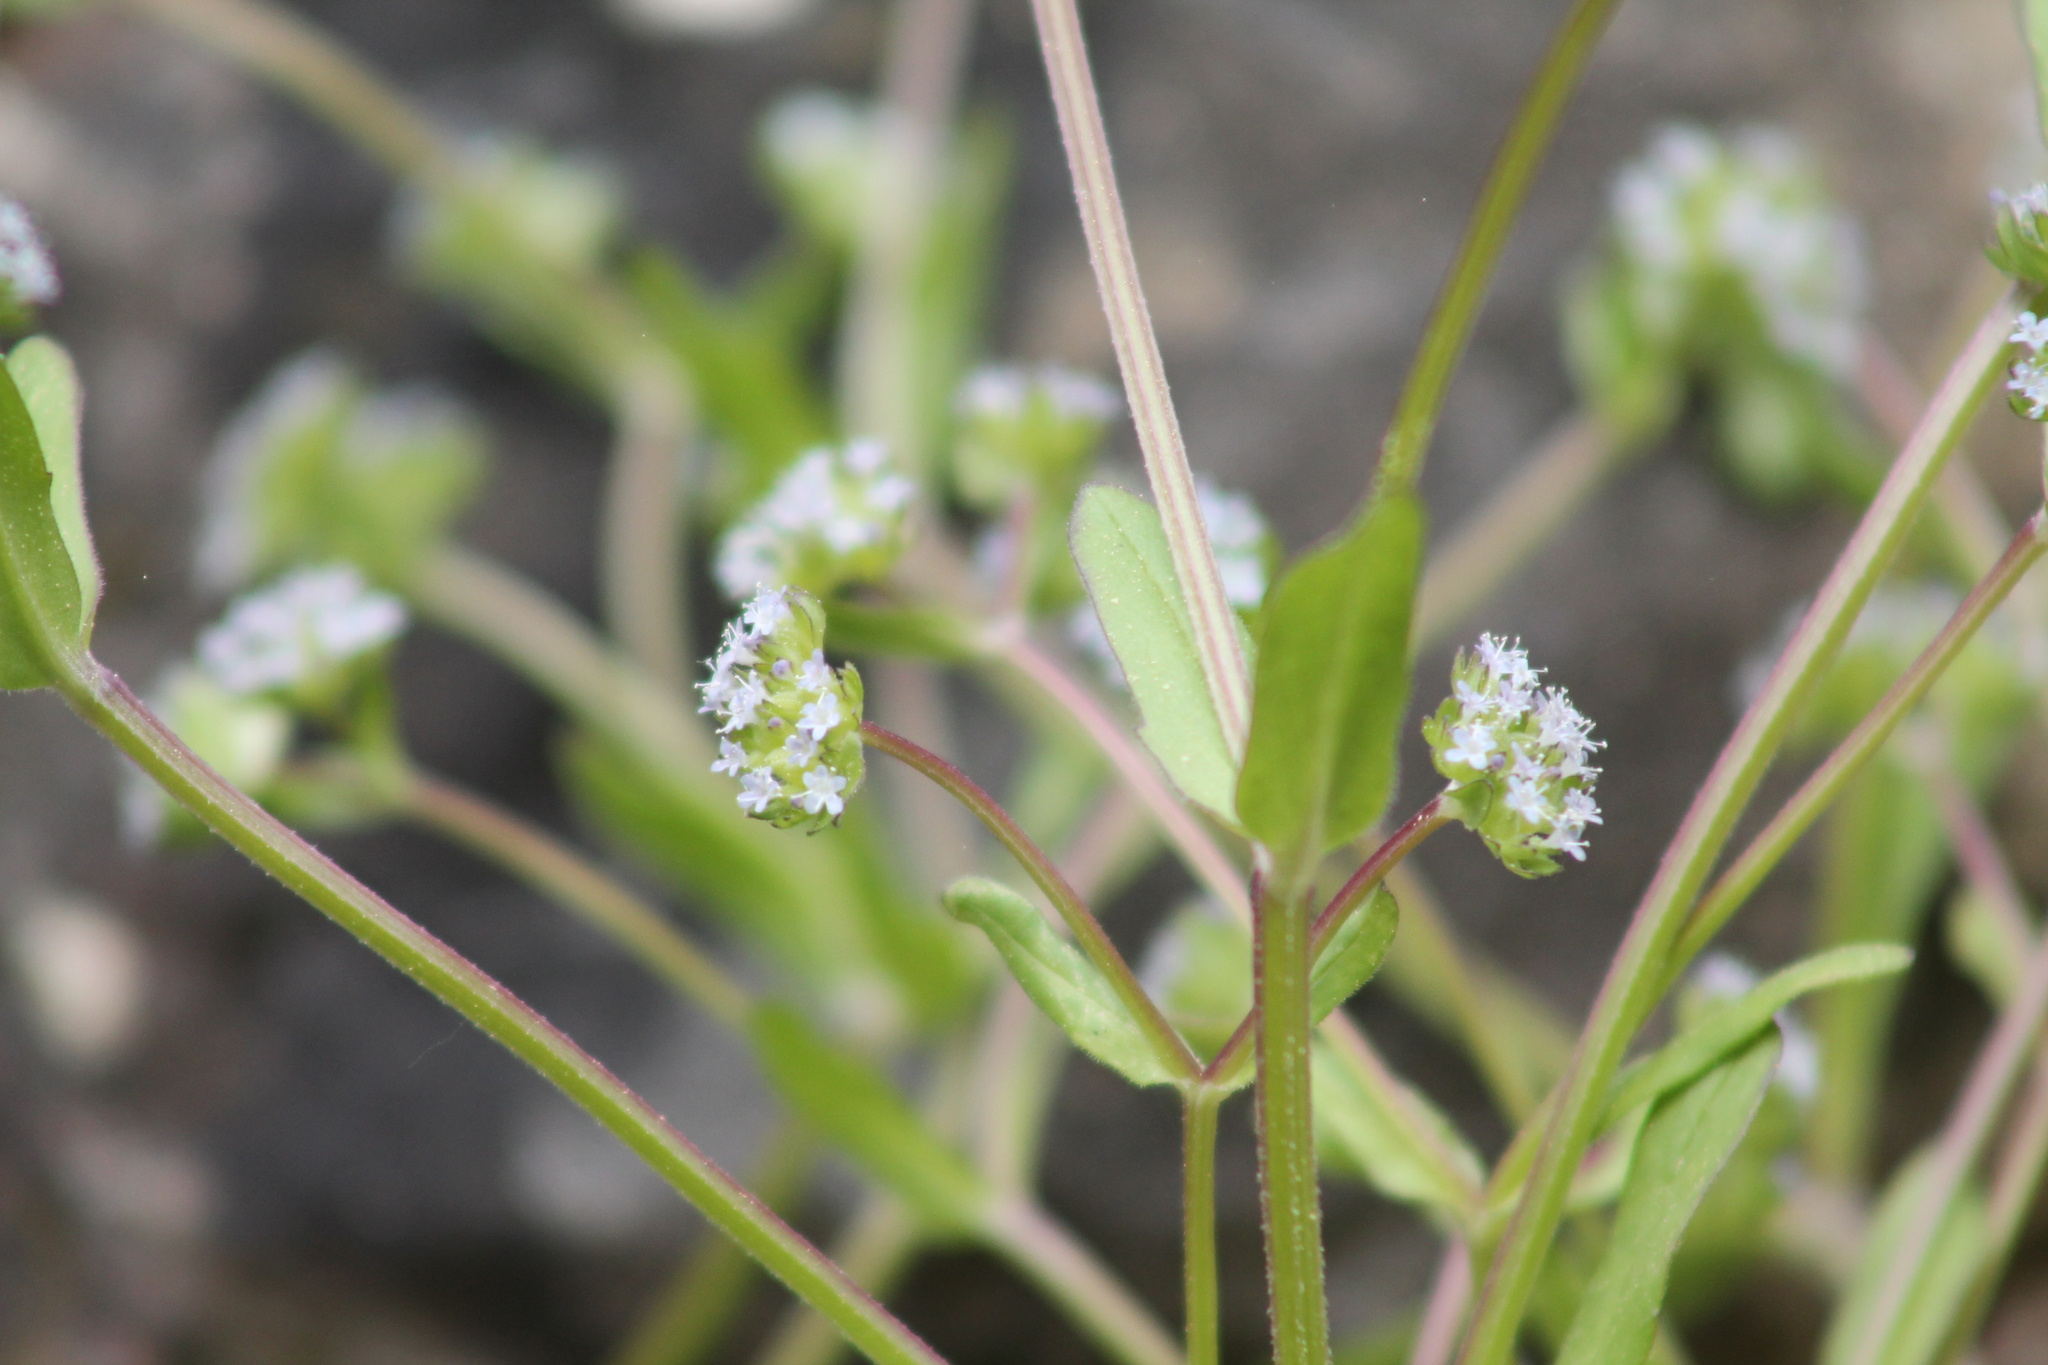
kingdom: Plantae
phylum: Tracheophyta
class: Magnoliopsida
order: Dipsacales
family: Caprifoliaceae
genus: Valerianella
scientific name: Valerianella locusta
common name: Common cornsalad
